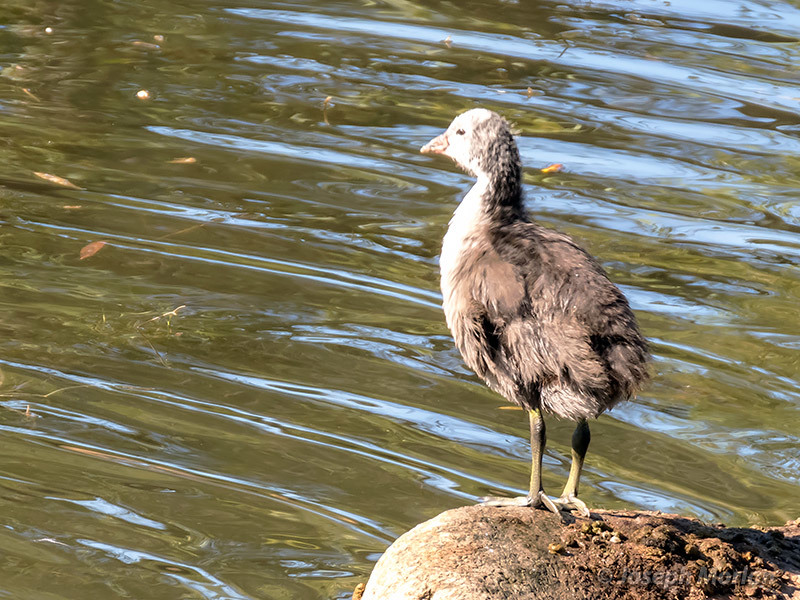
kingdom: Animalia
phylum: Chordata
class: Aves
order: Gruiformes
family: Rallidae
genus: Fulica
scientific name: Fulica americana
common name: American coot
